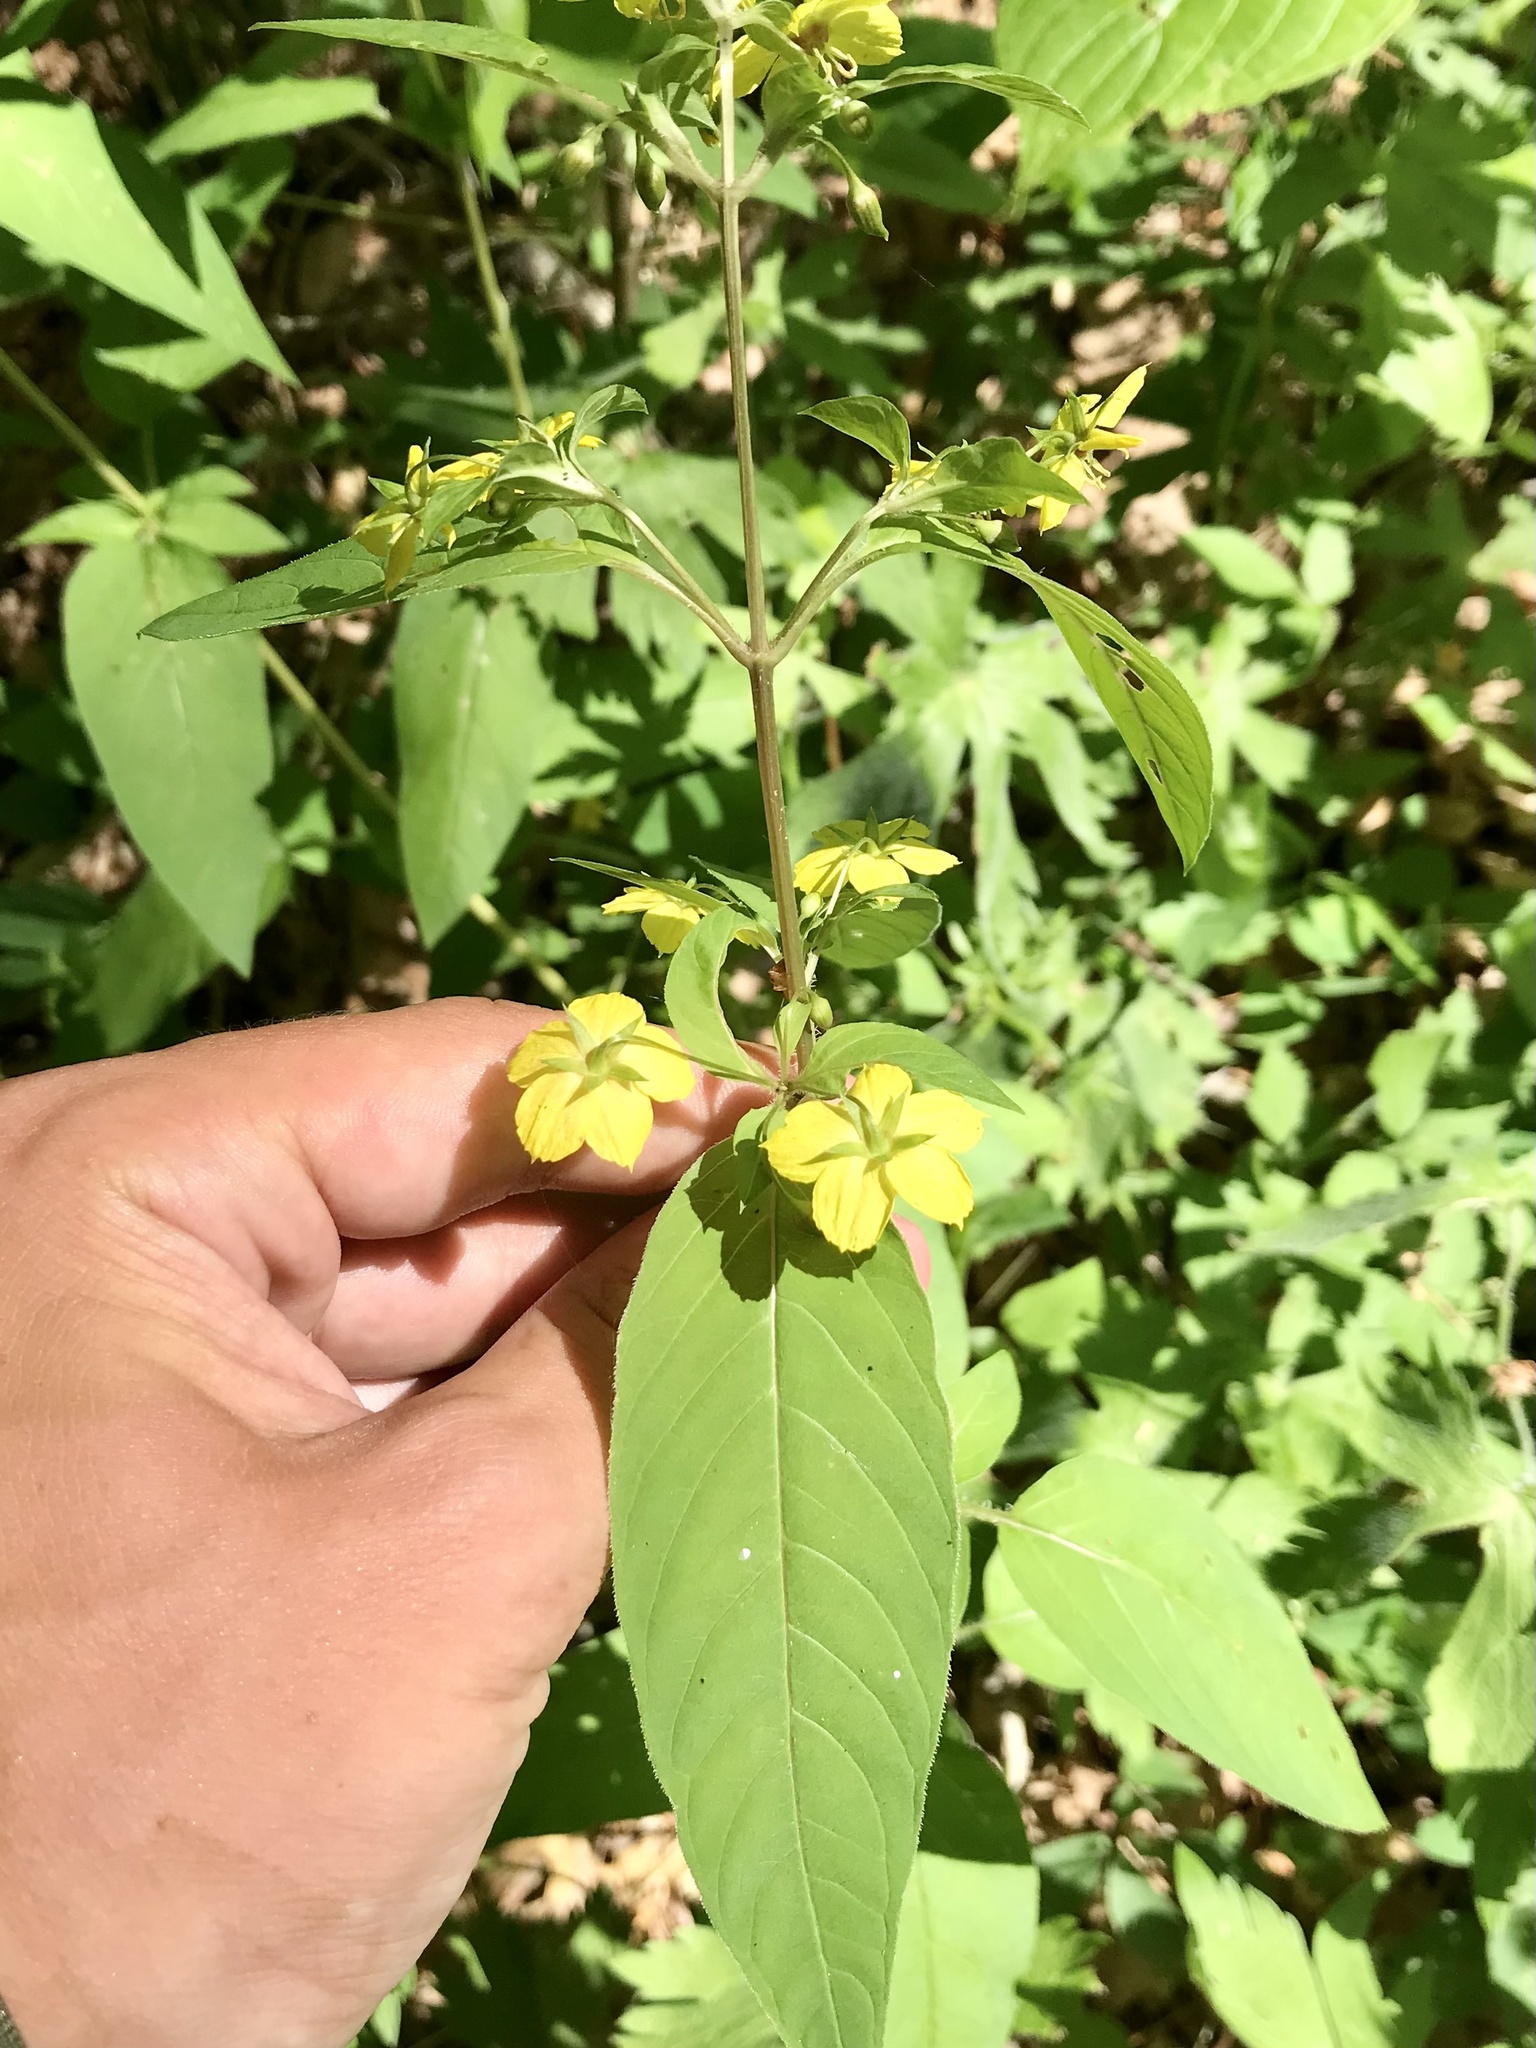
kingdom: Plantae
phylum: Tracheophyta
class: Magnoliopsida
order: Ericales
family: Primulaceae
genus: Lysimachia
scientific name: Lysimachia ciliata
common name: Fringed loosestrife
